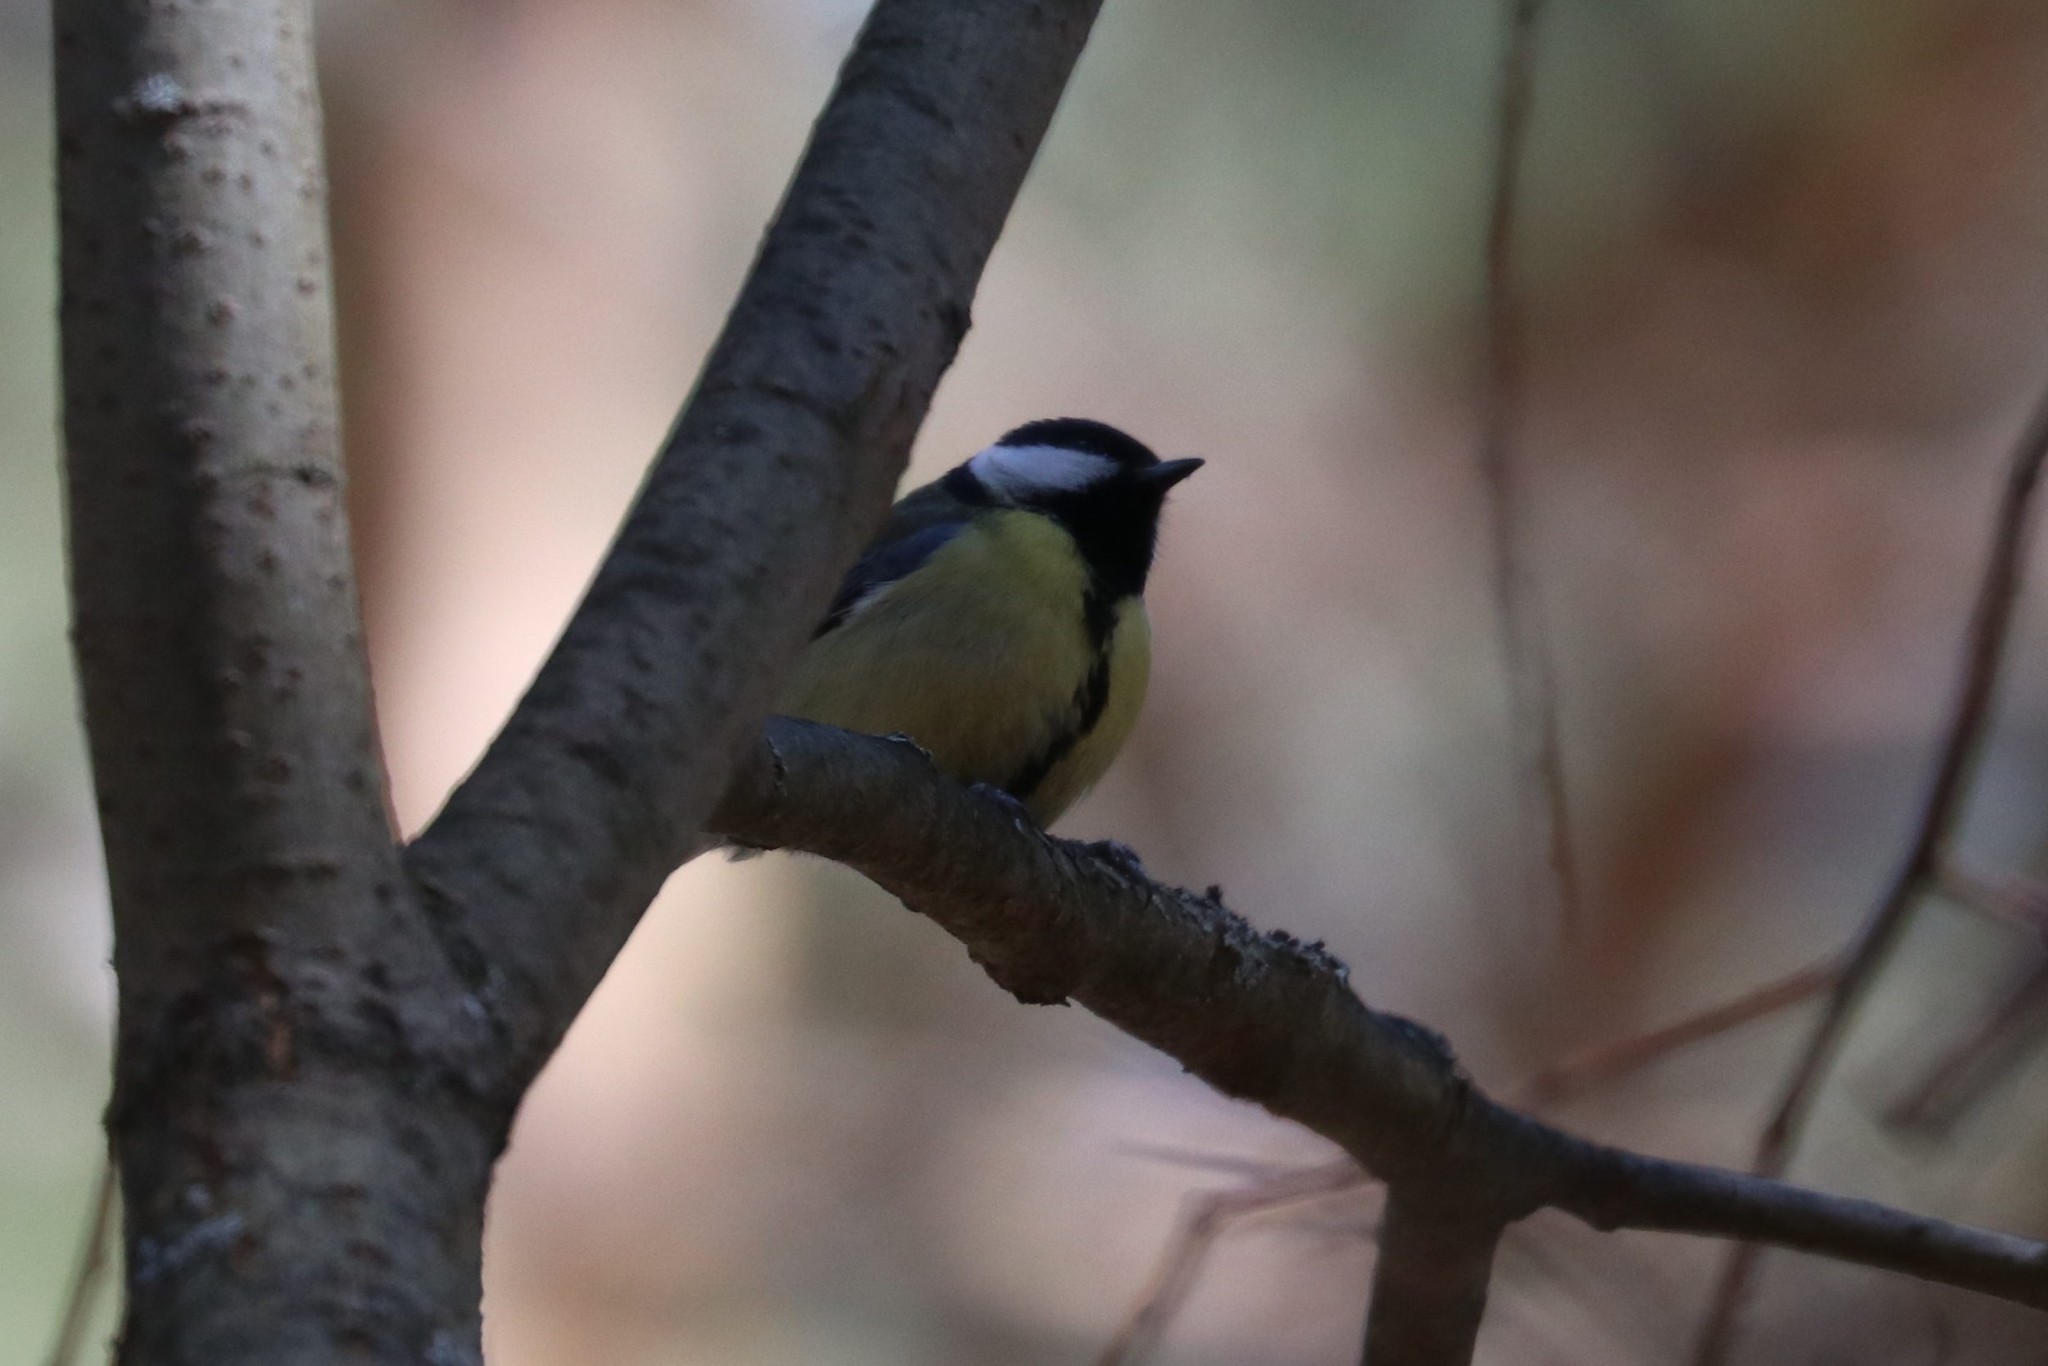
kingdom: Animalia
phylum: Chordata
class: Aves
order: Passeriformes
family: Paridae
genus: Parus
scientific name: Parus major
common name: Great tit
